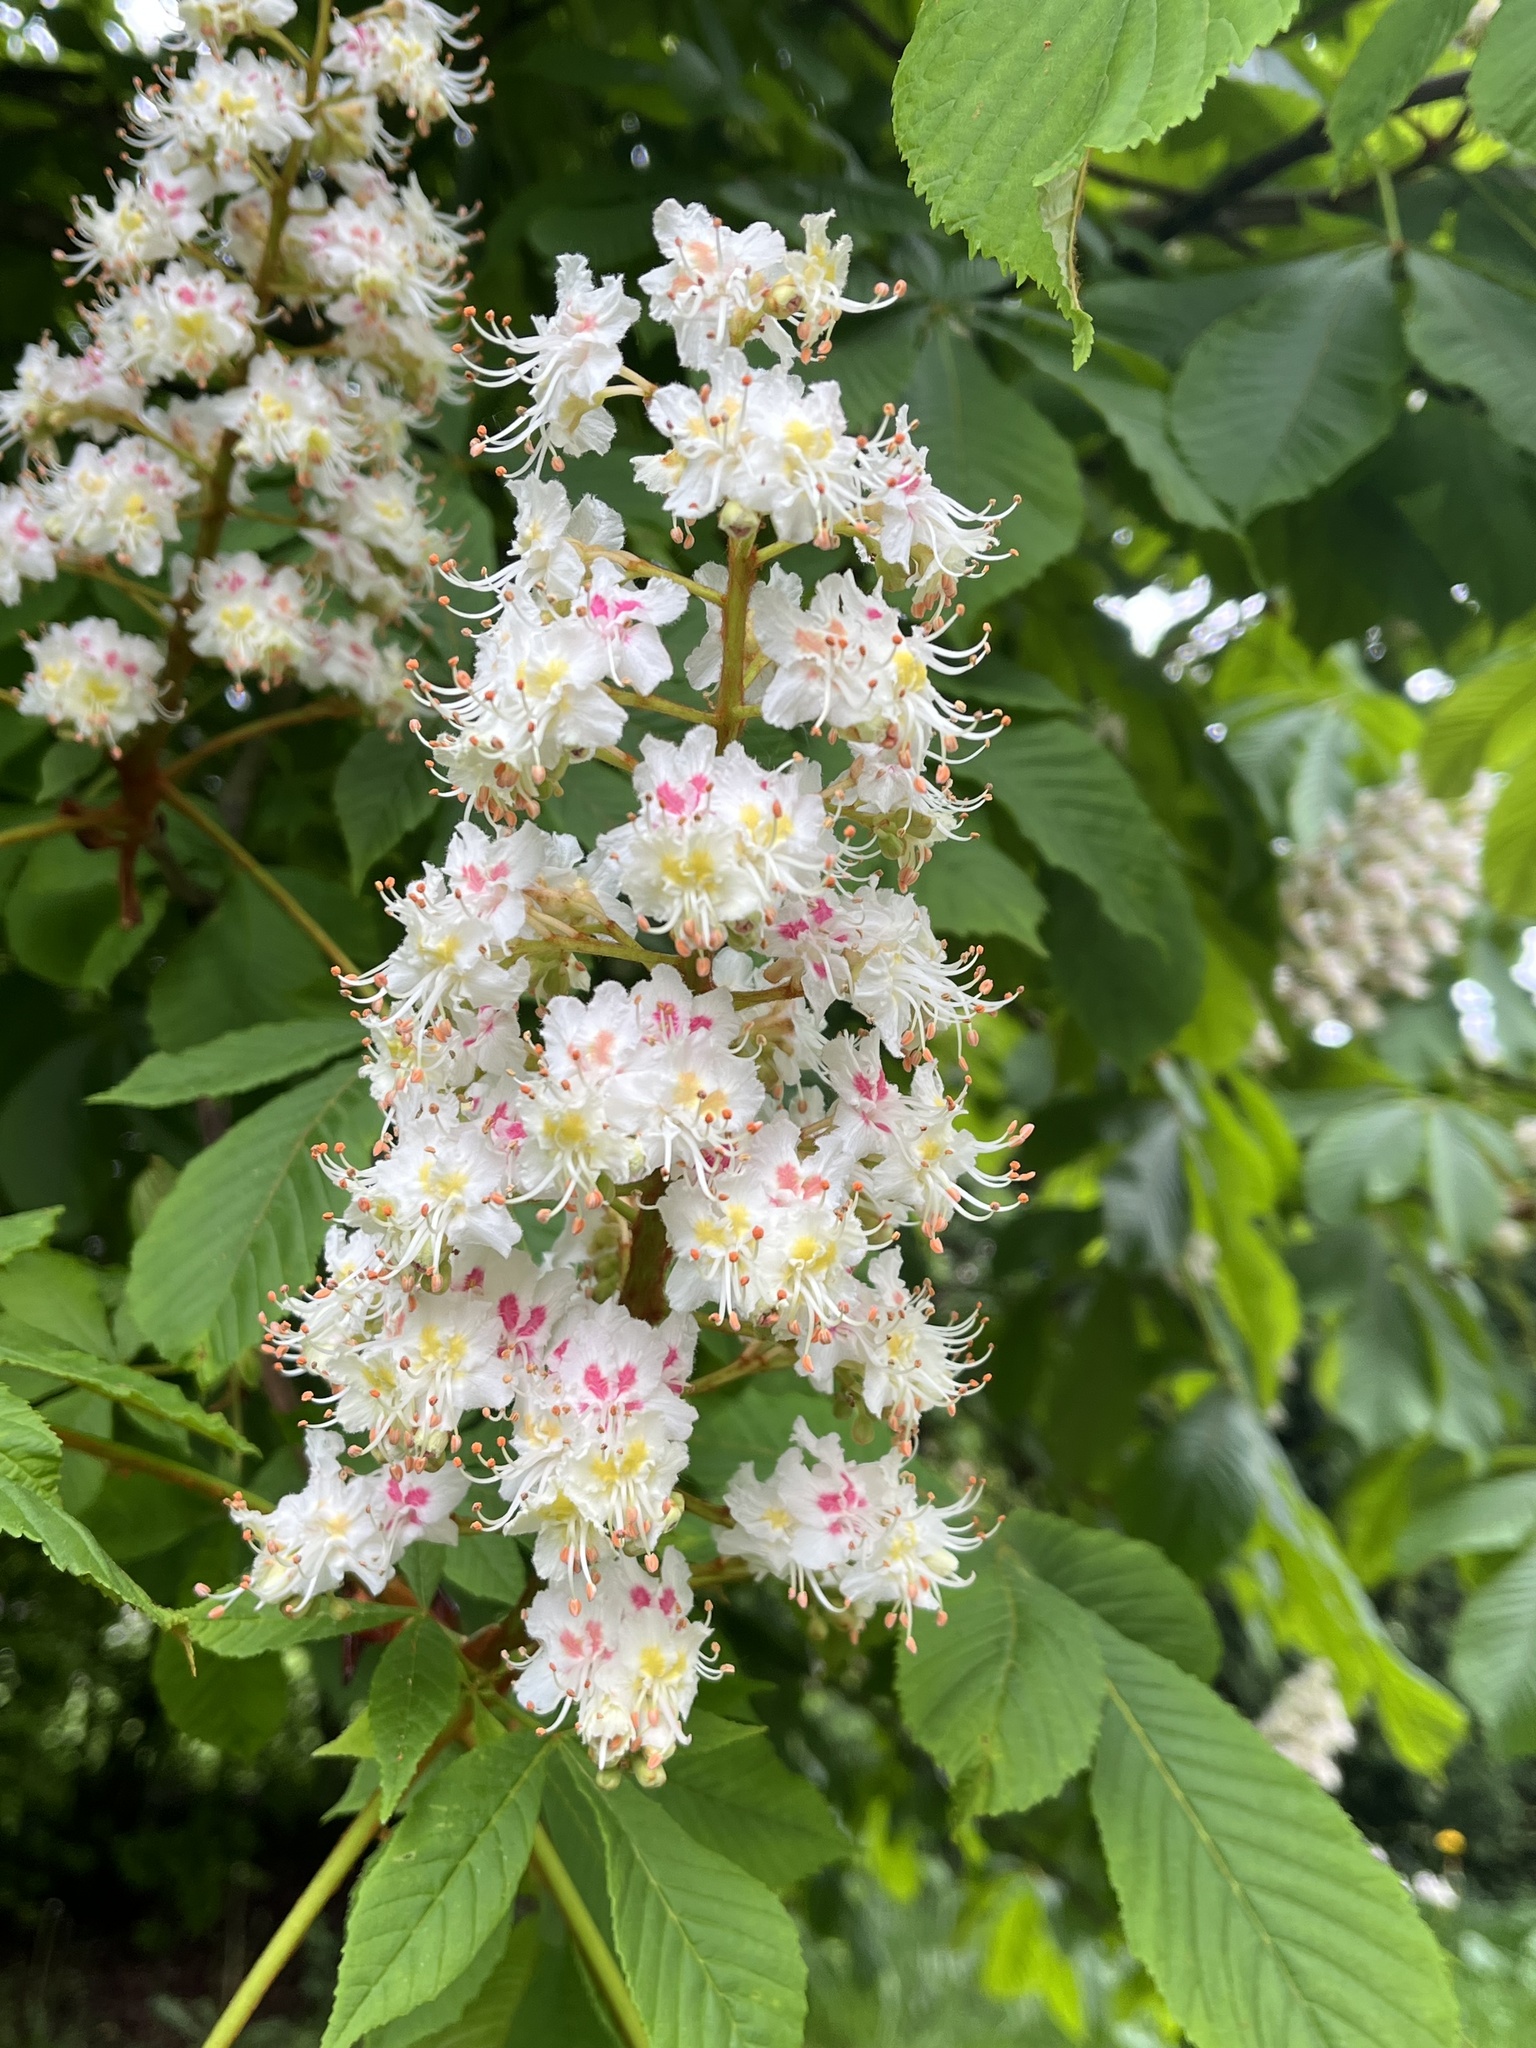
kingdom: Plantae
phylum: Tracheophyta
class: Magnoliopsida
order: Sapindales
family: Sapindaceae
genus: Aesculus
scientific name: Aesculus hippocastanum
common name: Horse-chestnut
